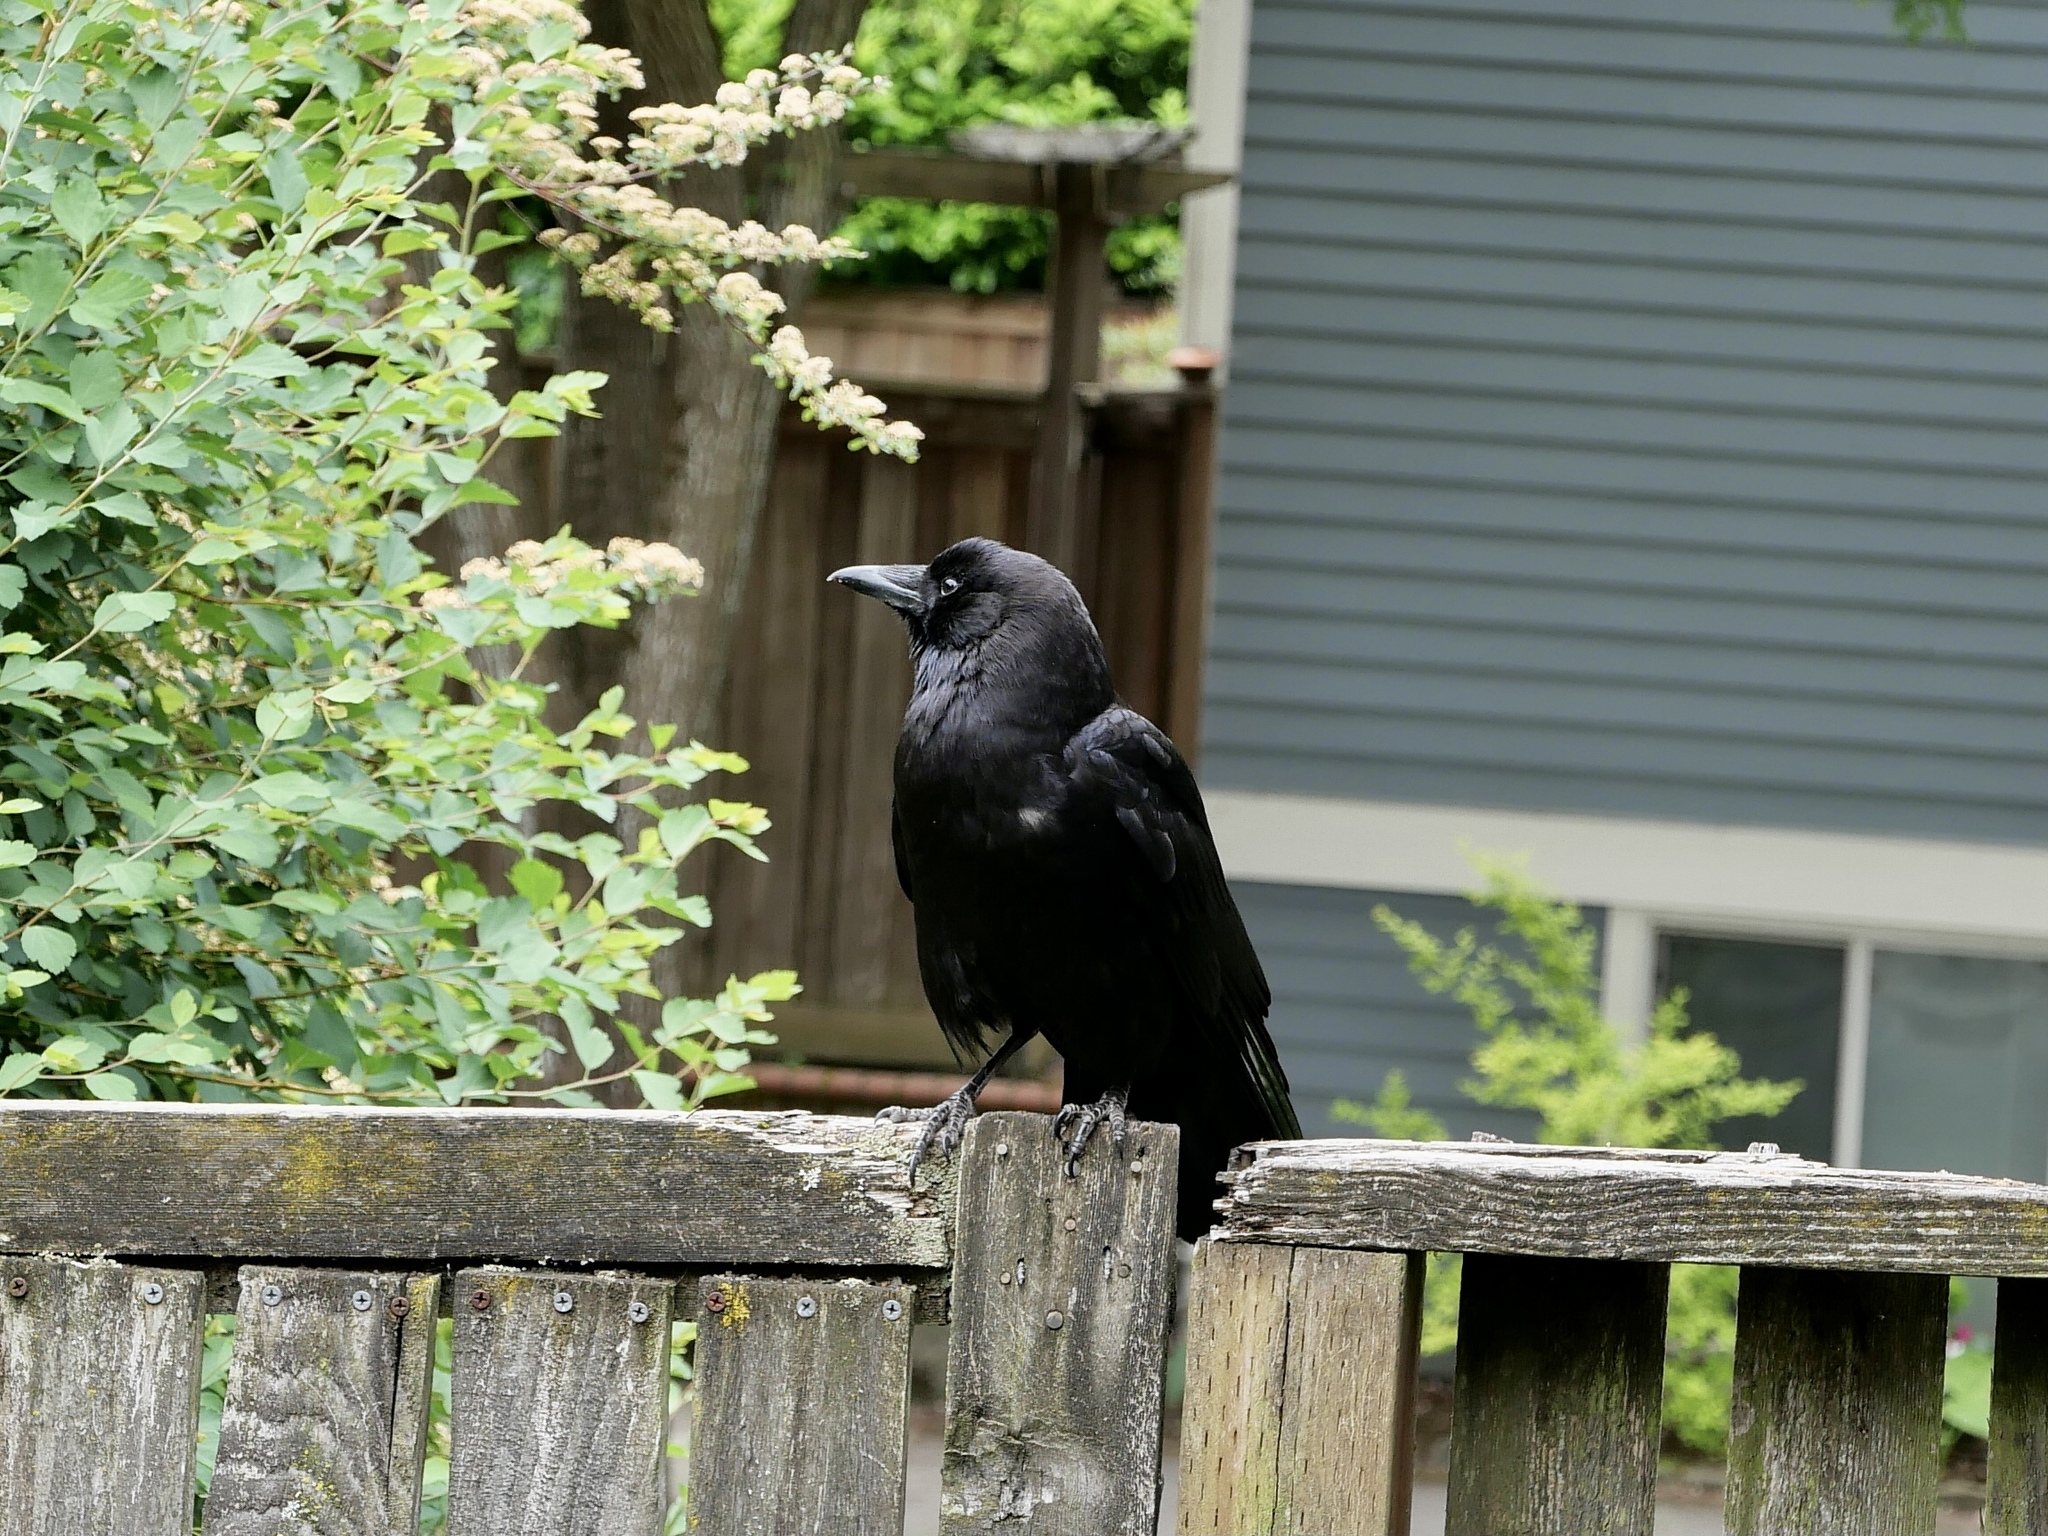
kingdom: Animalia
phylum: Chordata
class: Aves
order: Passeriformes
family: Corvidae
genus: Corvus
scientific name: Corvus brachyrhynchos
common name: American crow
